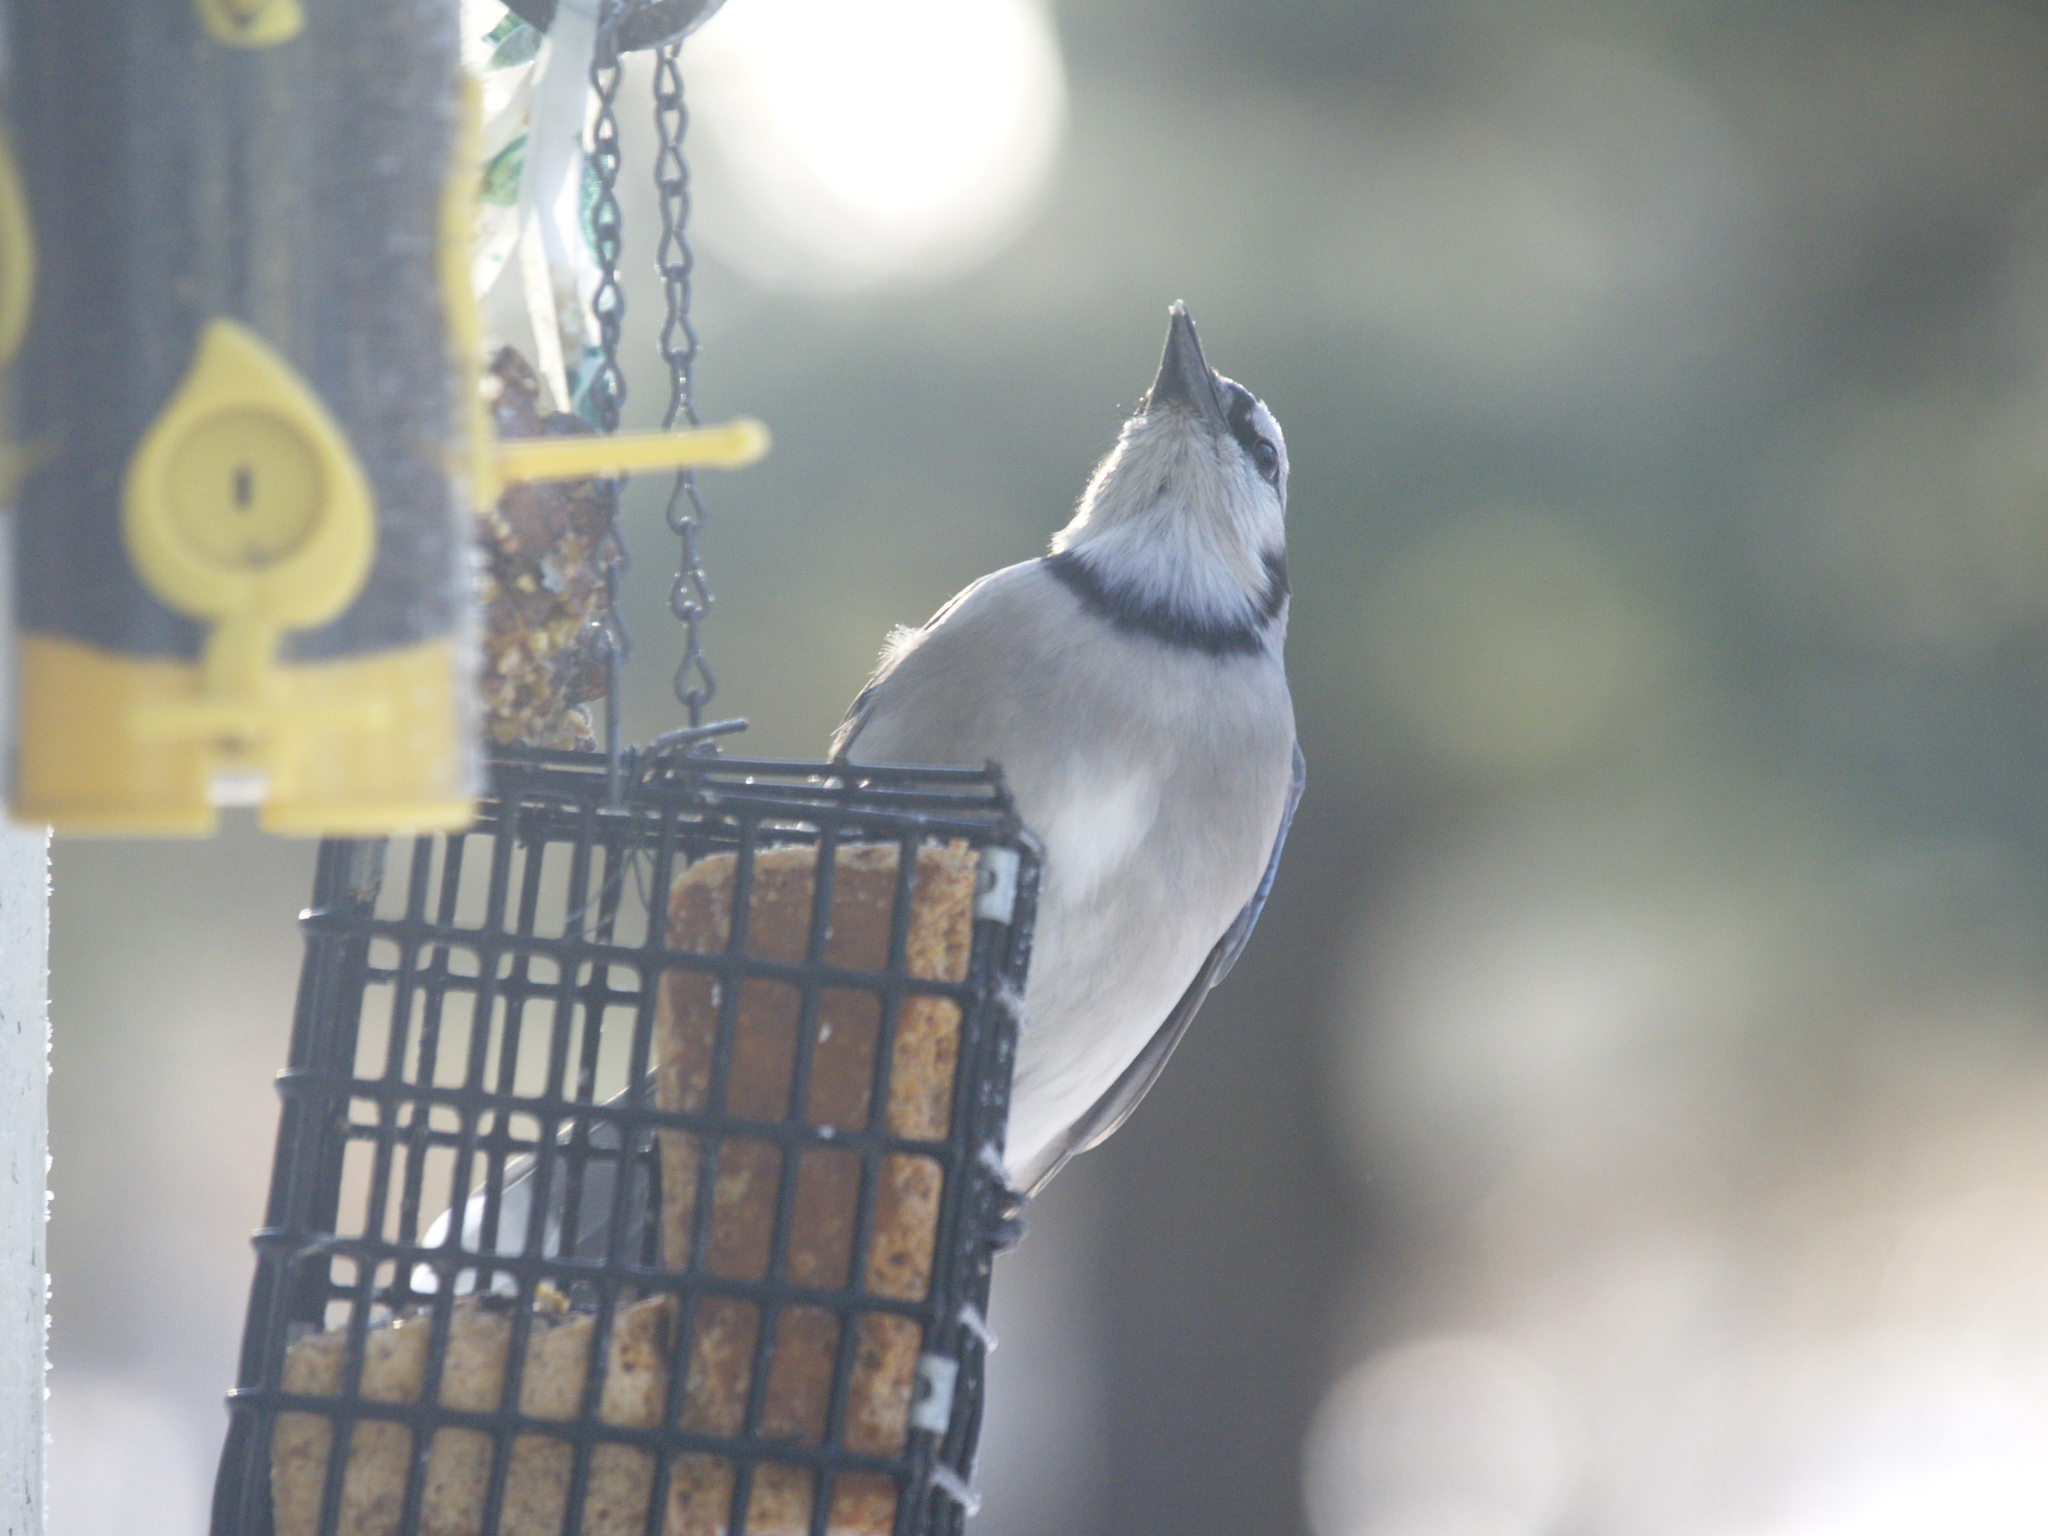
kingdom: Animalia
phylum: Chordata
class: Aves
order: Passeriformes
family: Corvidae
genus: Cyanocitta
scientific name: Cyanocitta cristata
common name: Blue jay
